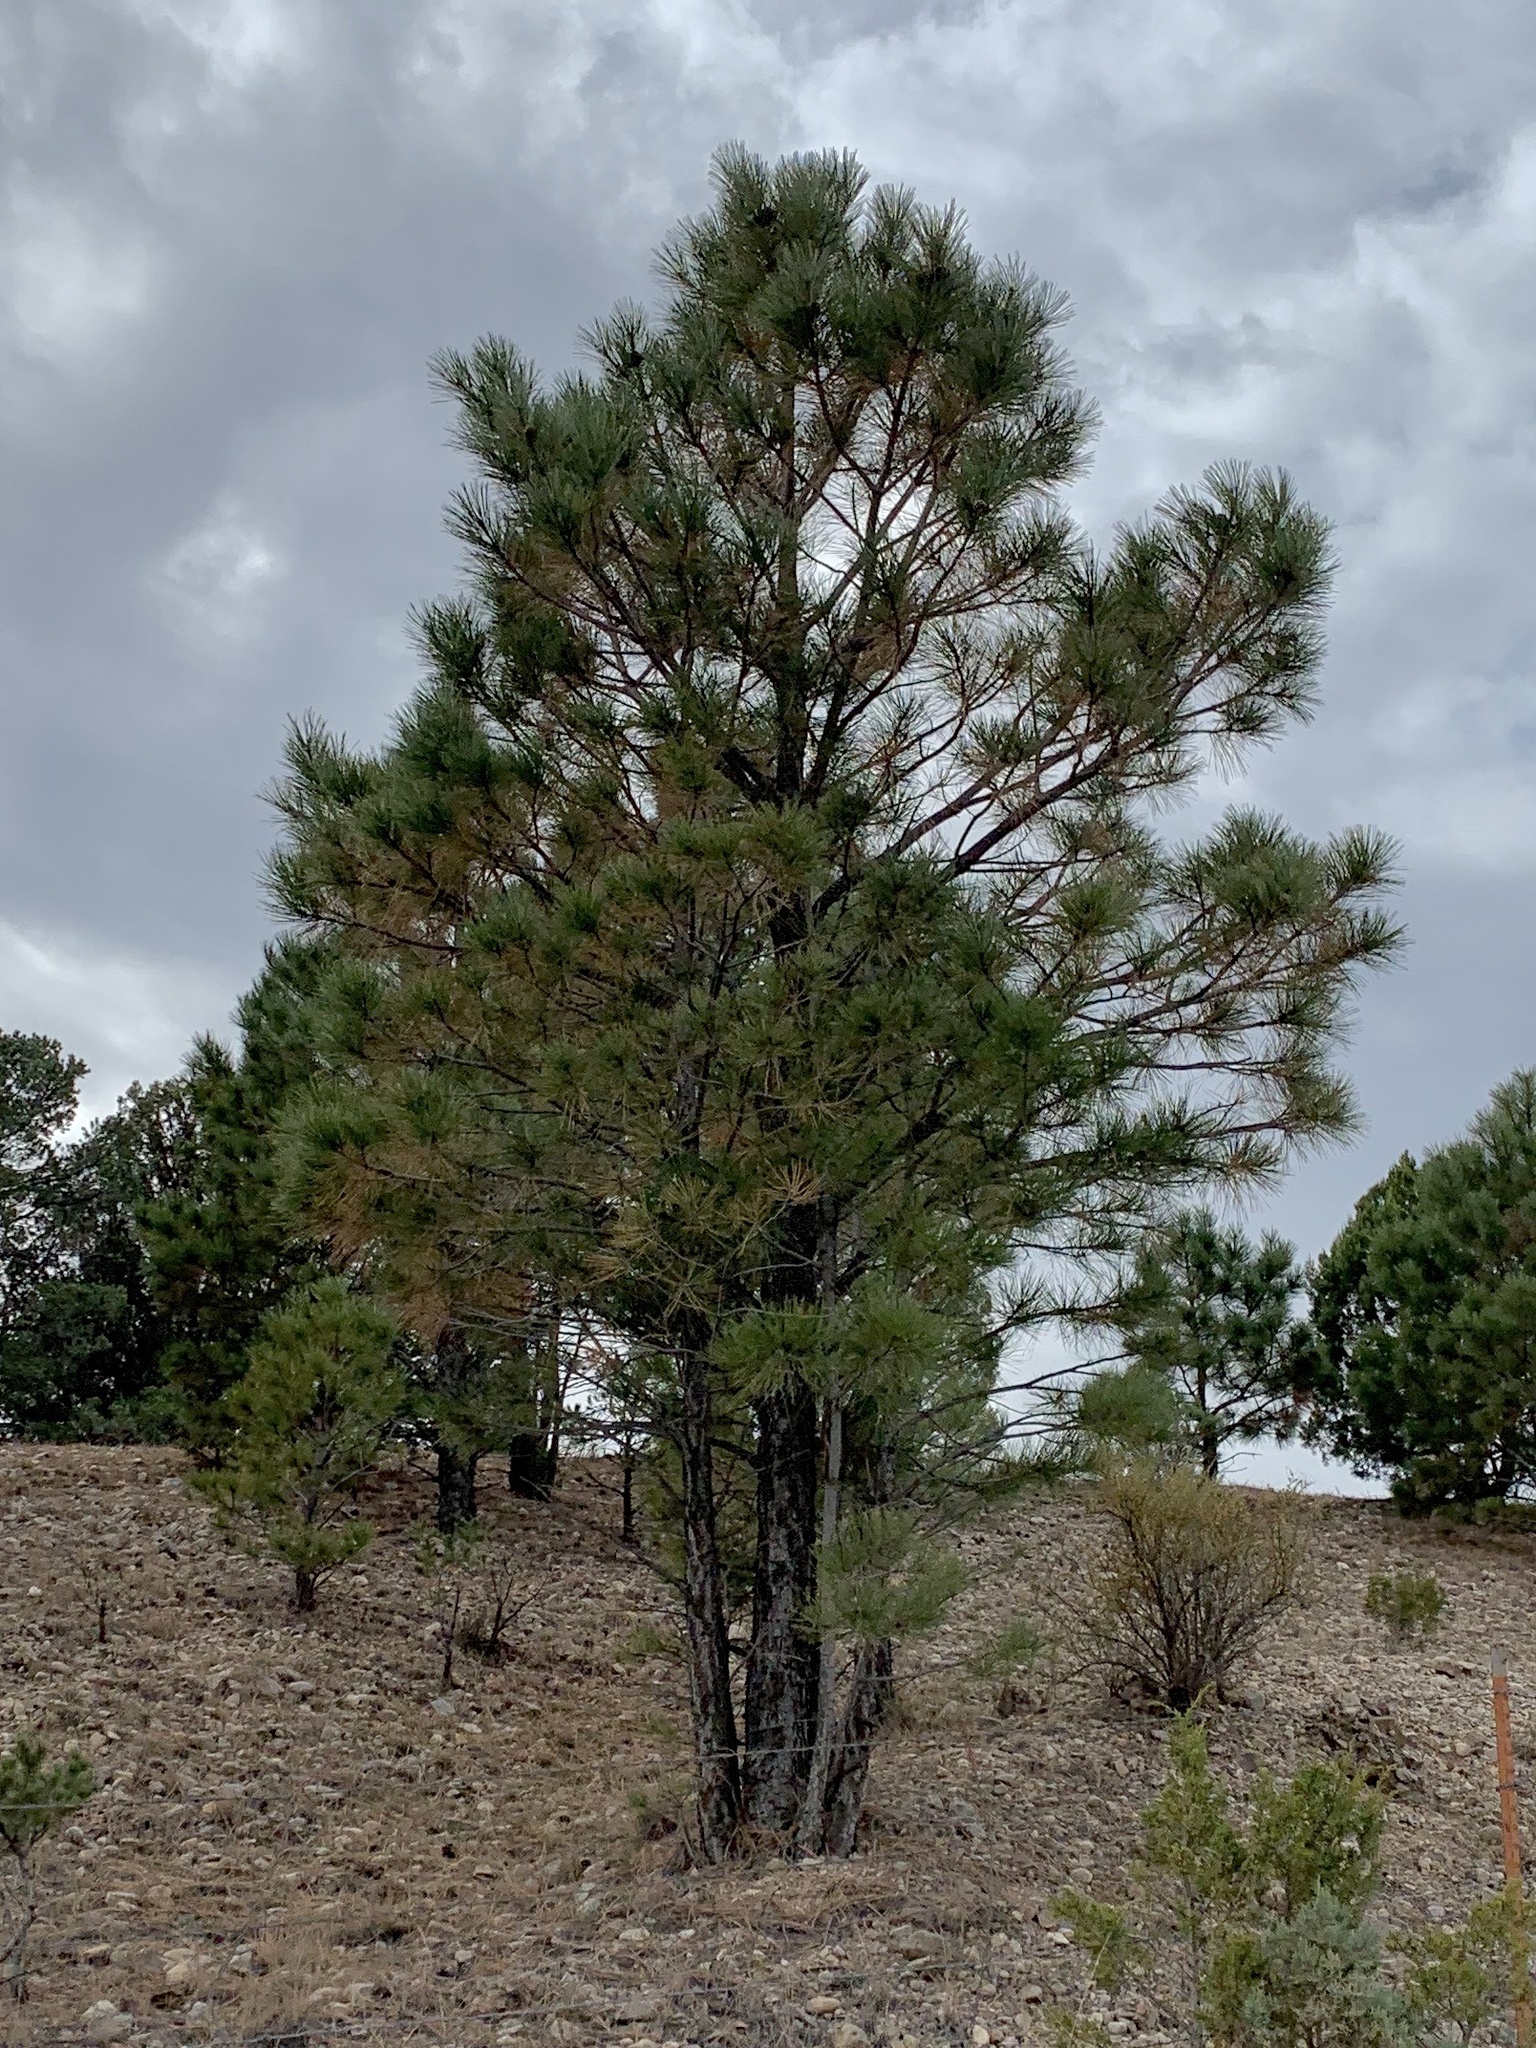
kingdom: Plantae
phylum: Tracheophyta
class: Pinopsida
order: Pinales
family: Pinaceae
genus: Pinus
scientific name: Pinus ponderosa
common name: Western yellow-pine
